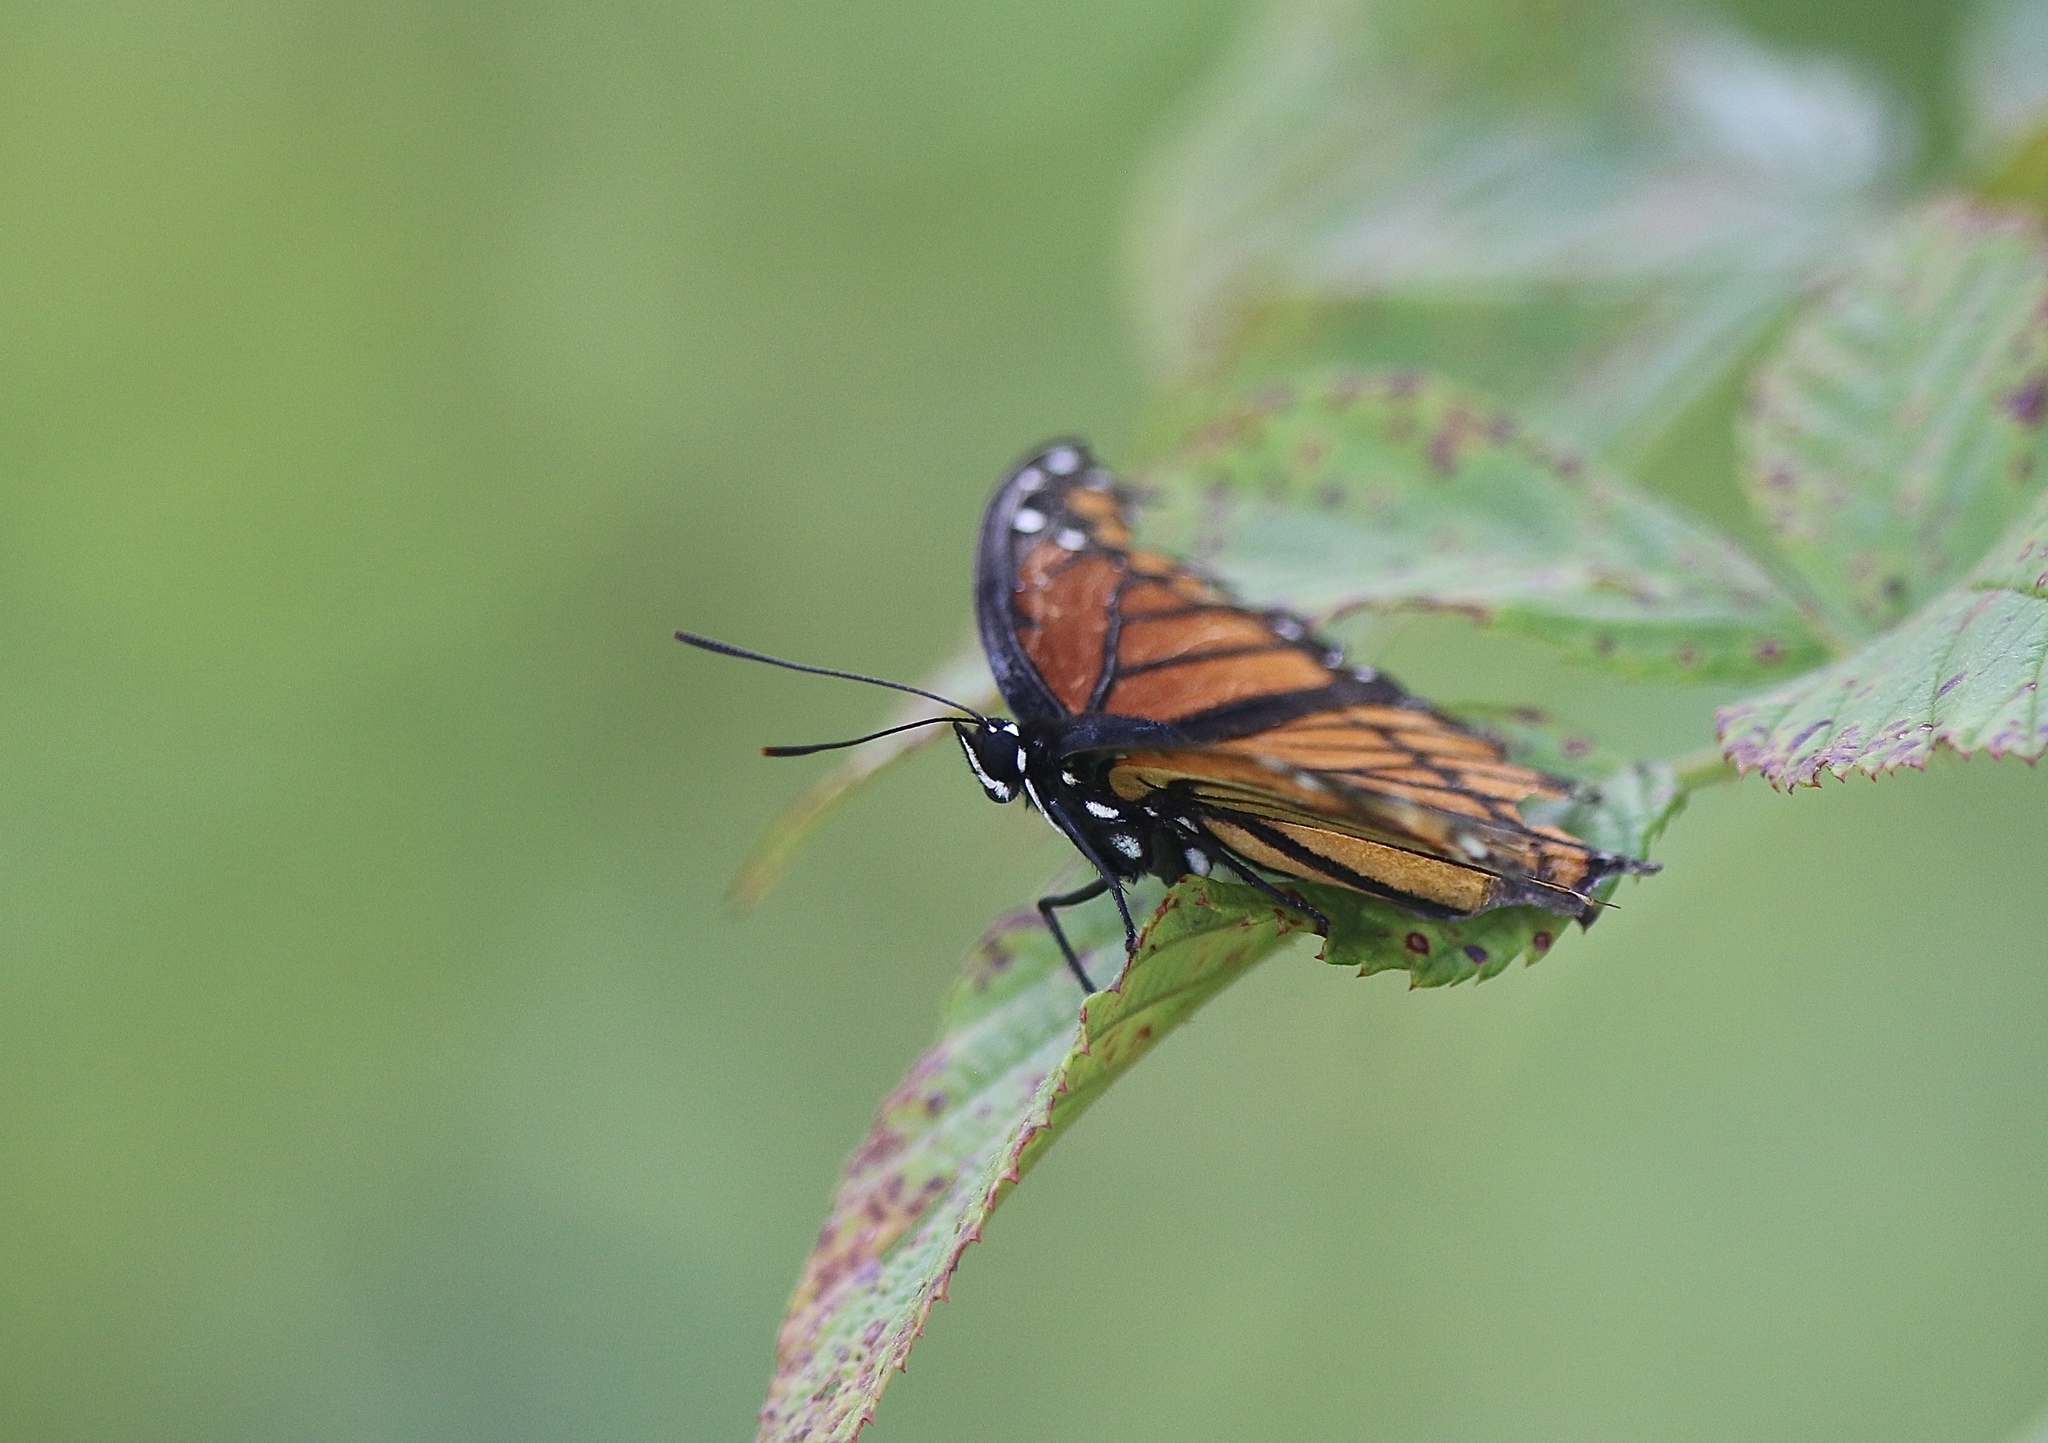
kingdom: Animalia
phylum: Arthropoda
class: Insecta
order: Lepidoptera
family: Nymphalidae
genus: Limenitis
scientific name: Limenitis archippus
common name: Viceroy
